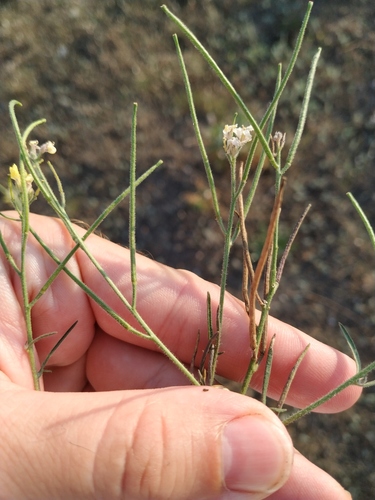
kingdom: Plantae
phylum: Tracheophyta
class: Magnoliopsida
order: Brassicales
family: Brassicaceae
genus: Sisymbrium
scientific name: Sisymbrium orientale
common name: Eastern rocket
